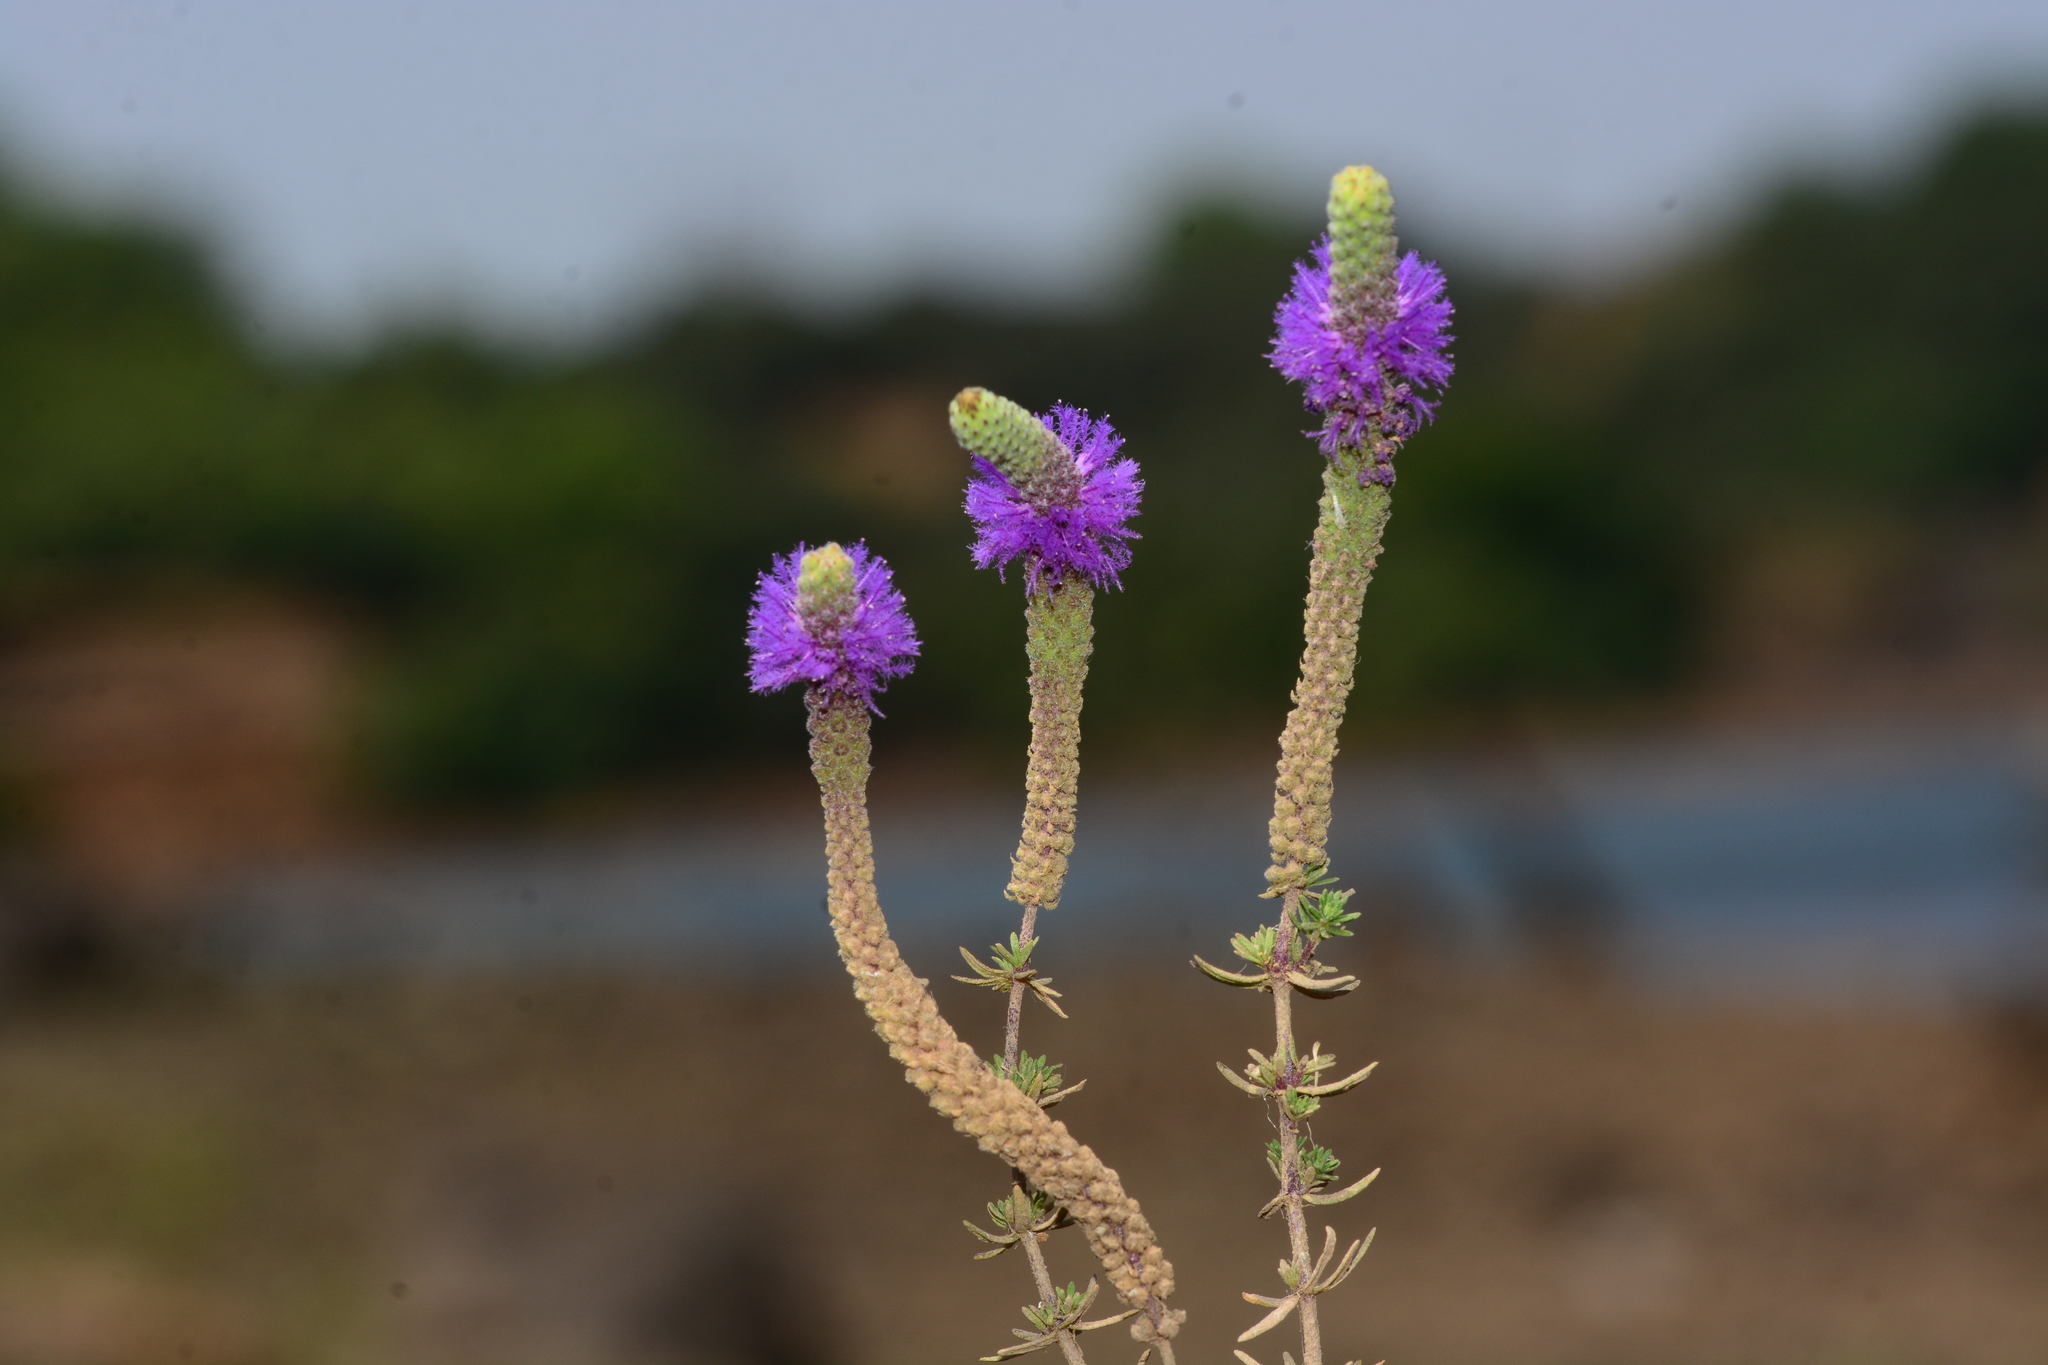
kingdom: Plantae
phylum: Tracheophyta
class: Magnoliopsida
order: Lamiales
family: Lamiaceae
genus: Pogostemon
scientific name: Pogostemon deccanensis
